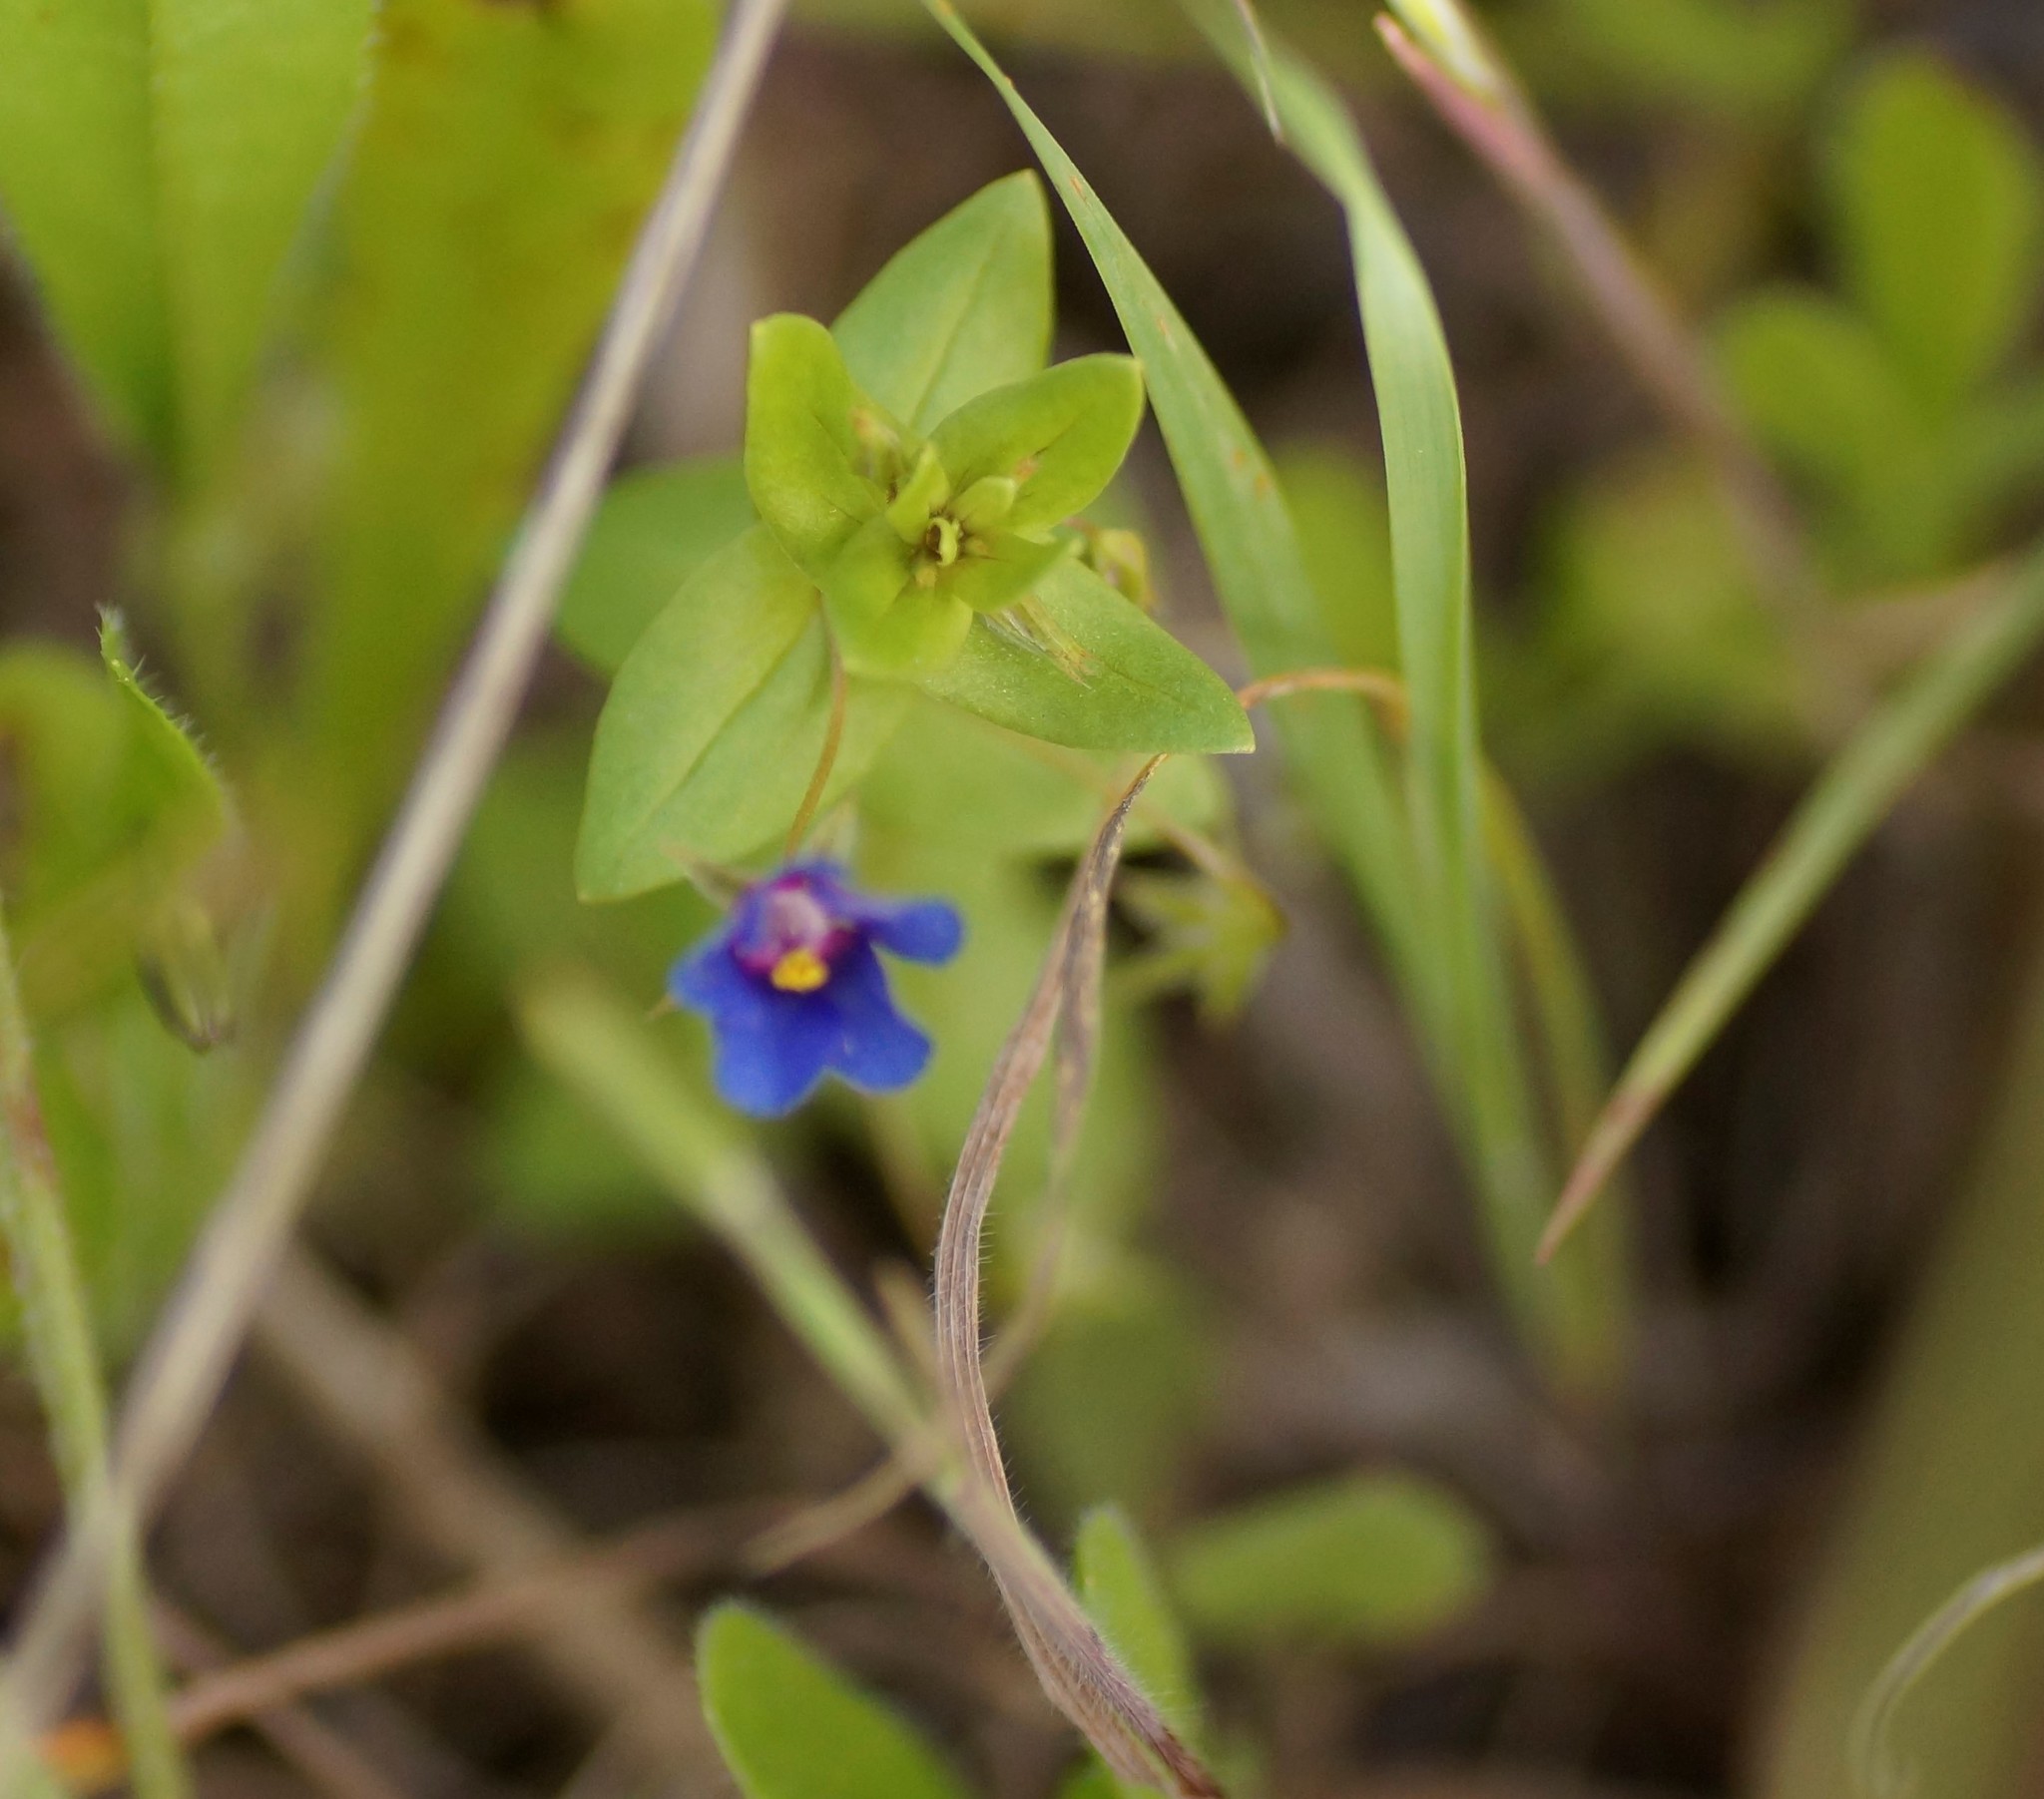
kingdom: Plantae
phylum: Tracheophyta
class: Magnoliopsida
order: Ericales
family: Primulaceae
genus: Lysimachia
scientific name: Lysimachia loeflingii
